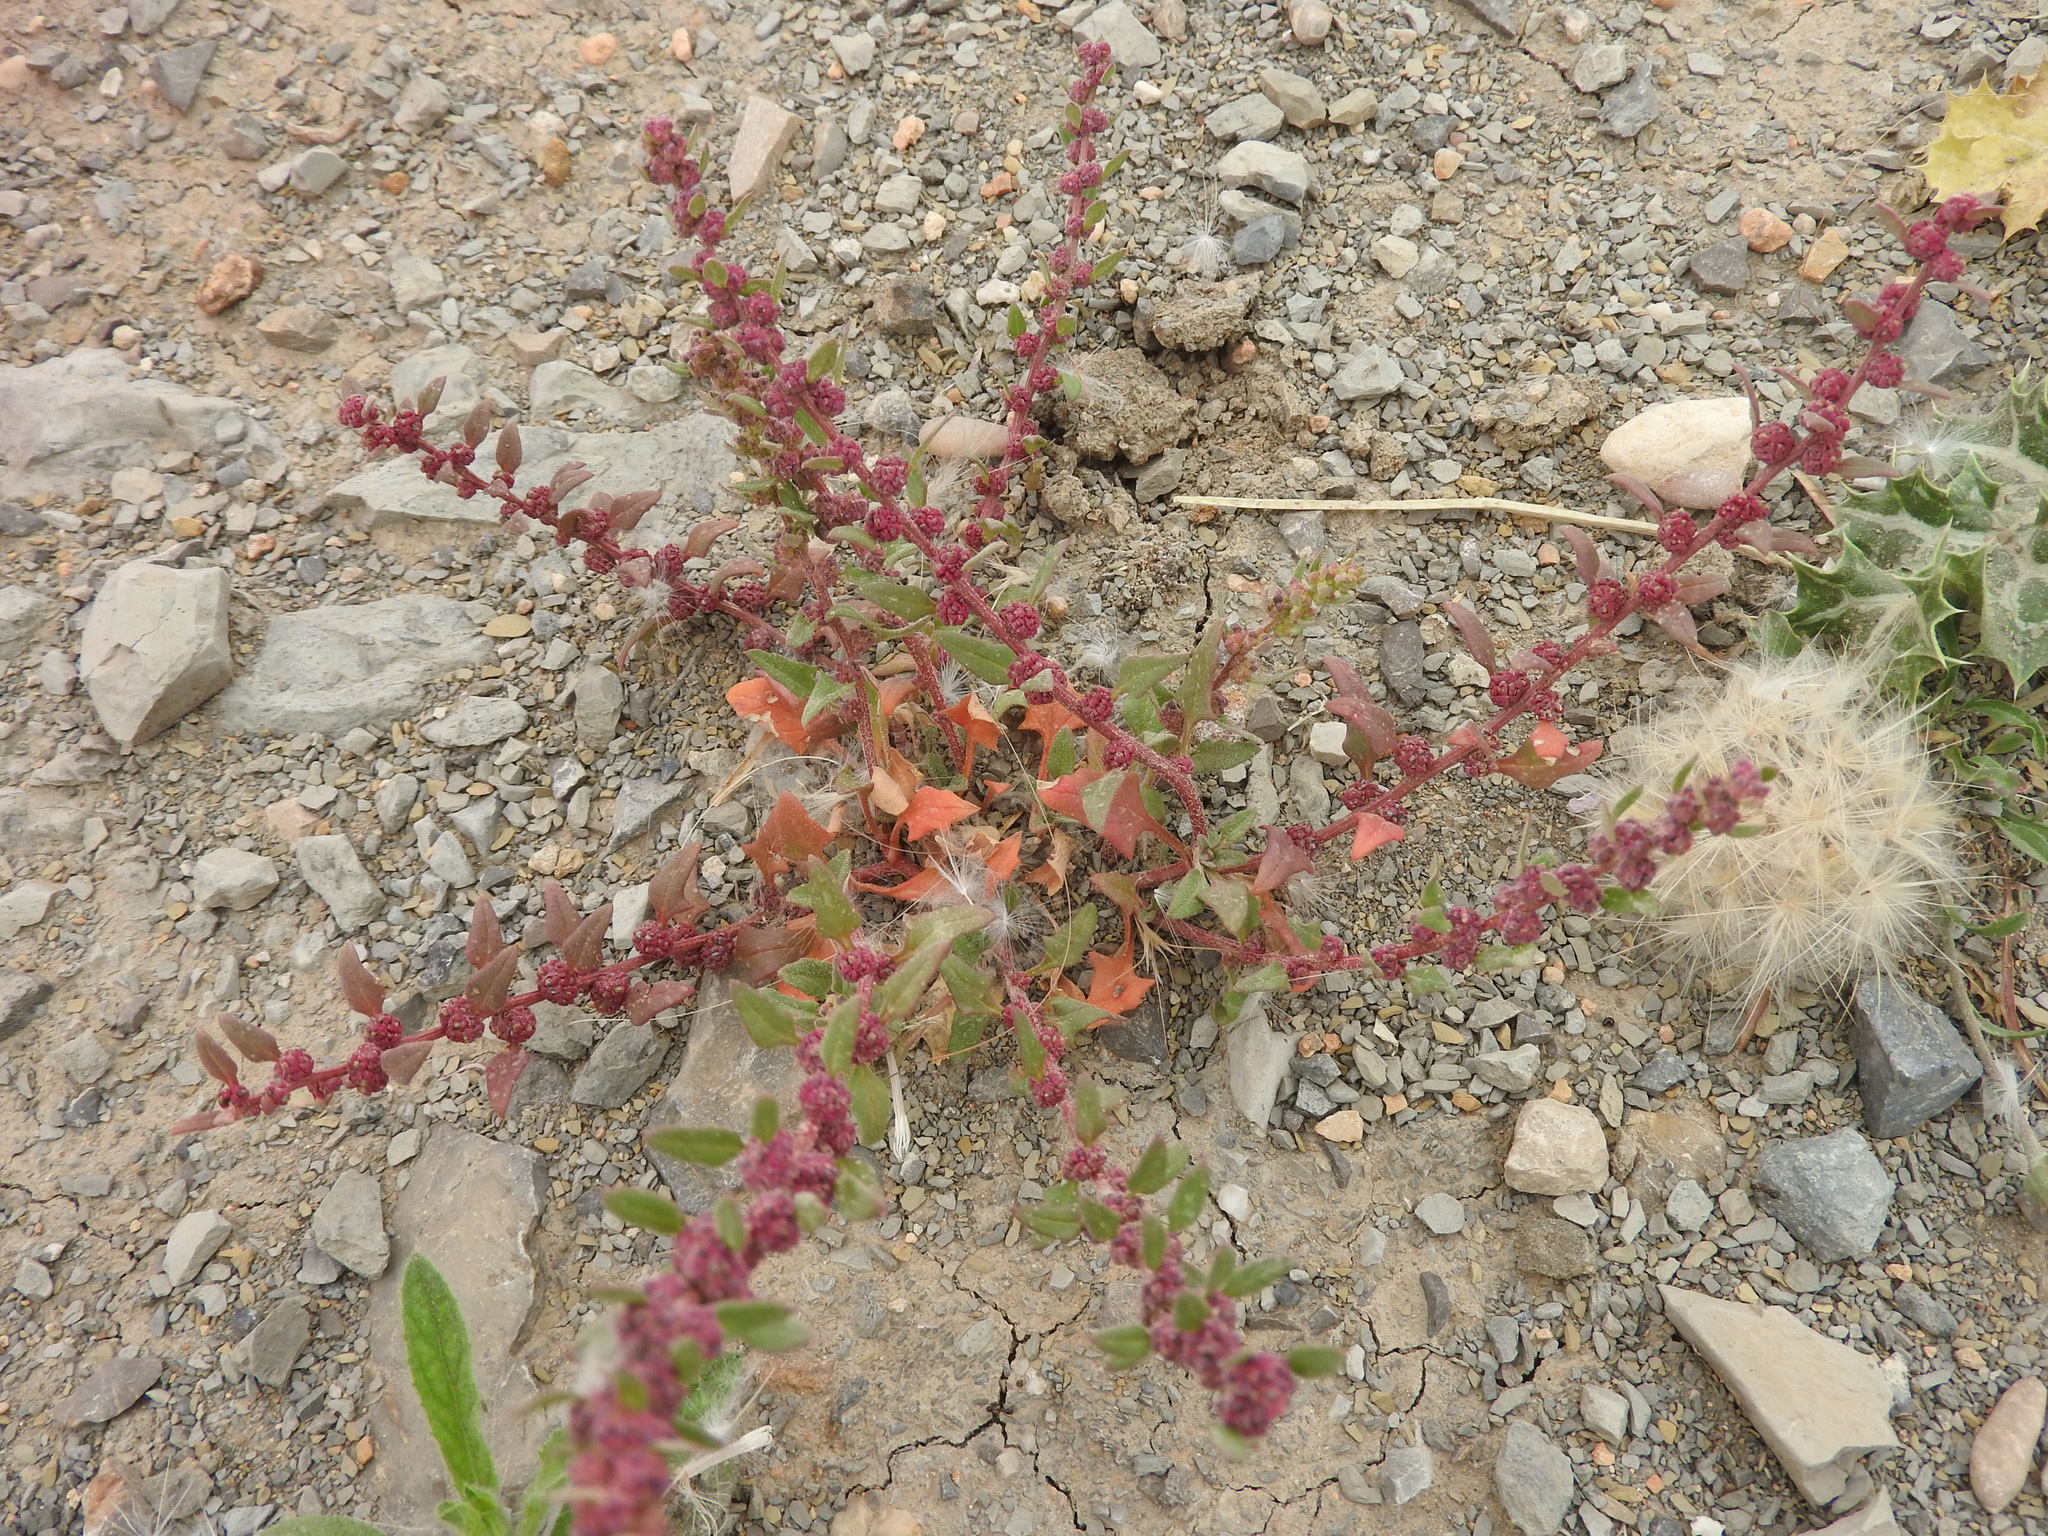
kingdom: Plantae
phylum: Tracheophyta
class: Magnoliopsida
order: Caryophyllales
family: Amaranthaceae
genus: Blitum
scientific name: Blitum virgatum
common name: Strawberry goosefoot
